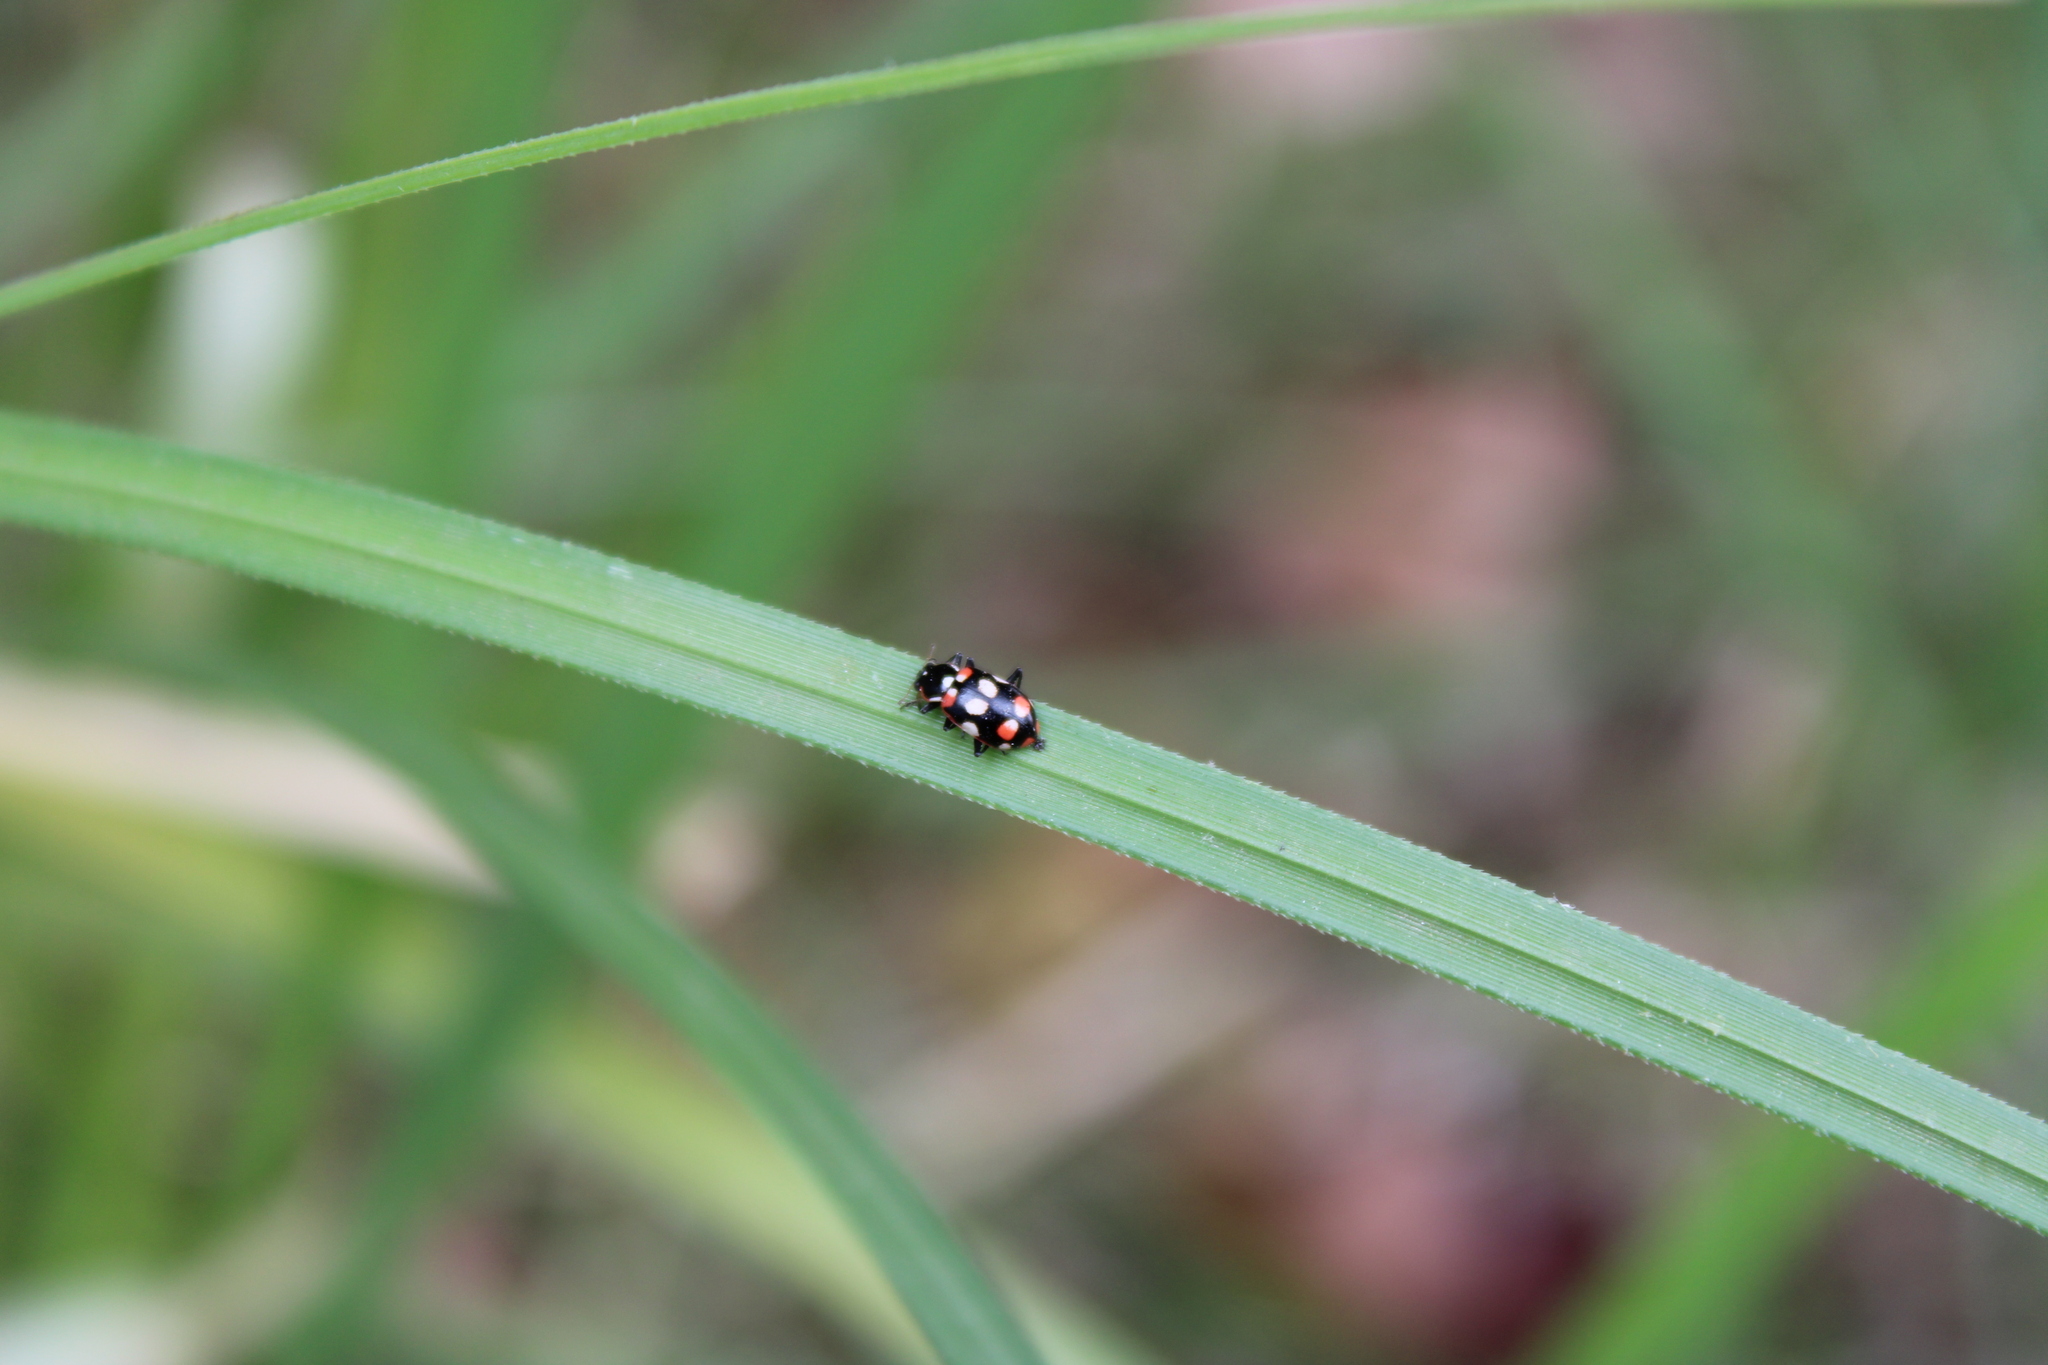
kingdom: Animalia
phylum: Arthropoda
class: Insecta
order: Coleoptera
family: Coccinellidae
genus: Eriopis
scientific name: Eriopis connexa
